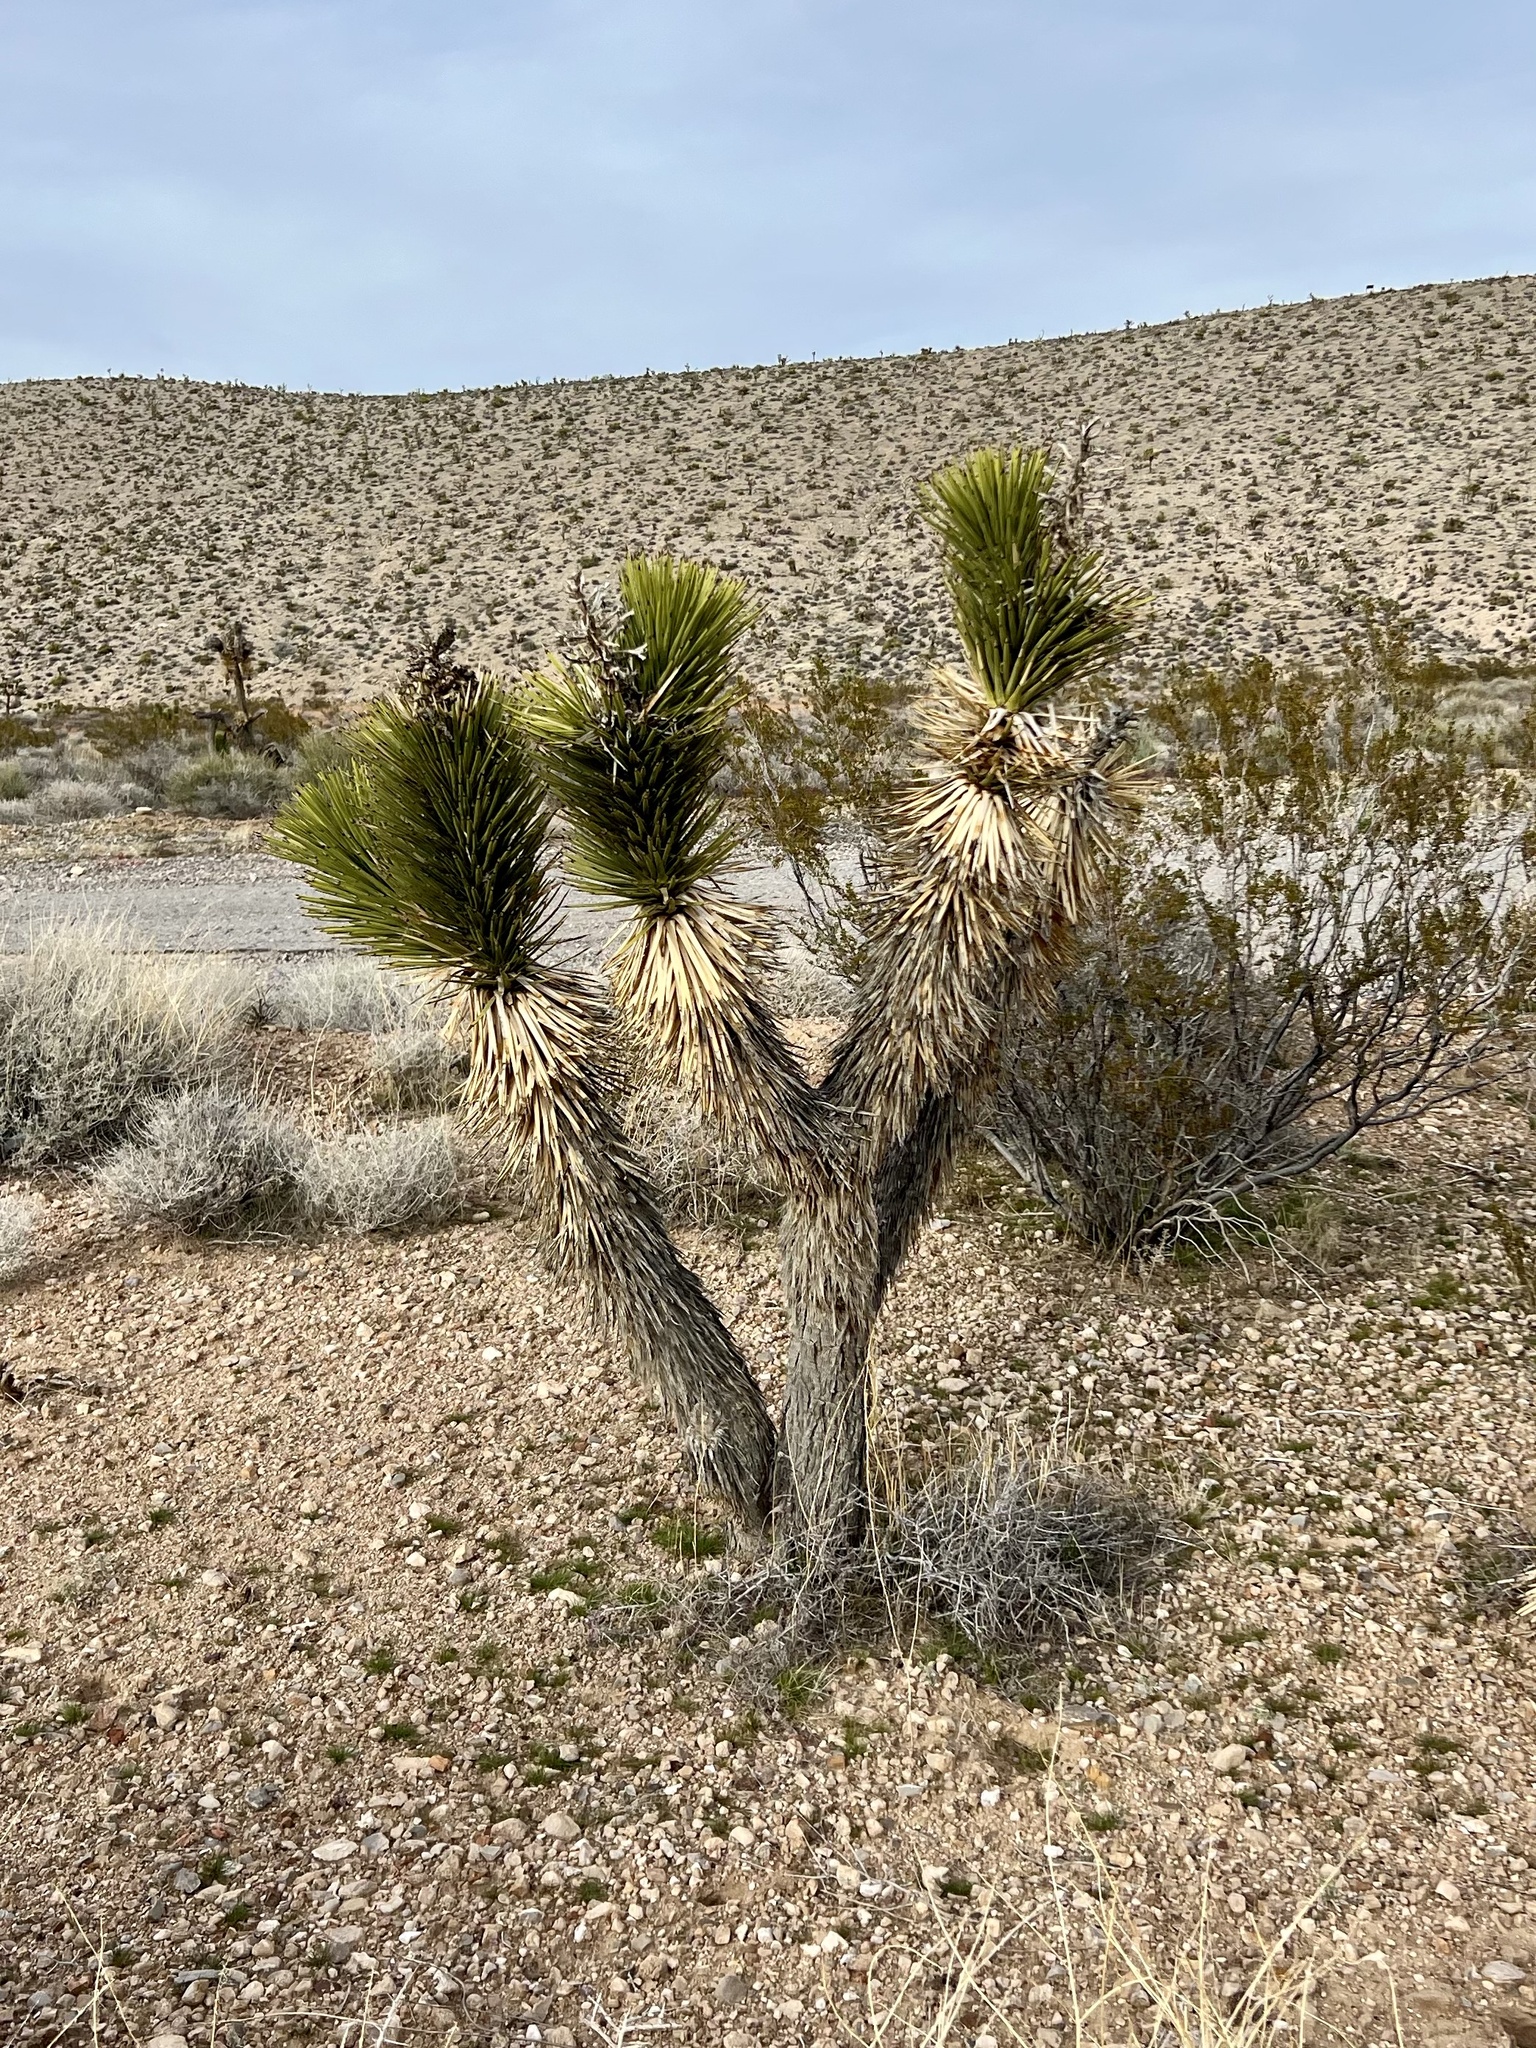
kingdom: Plantae
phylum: Tracheophyta
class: Liliopsida
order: Asparagales
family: Asparagaceae
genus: Yucca
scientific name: Yucca brevifolia
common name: Joshua tree
